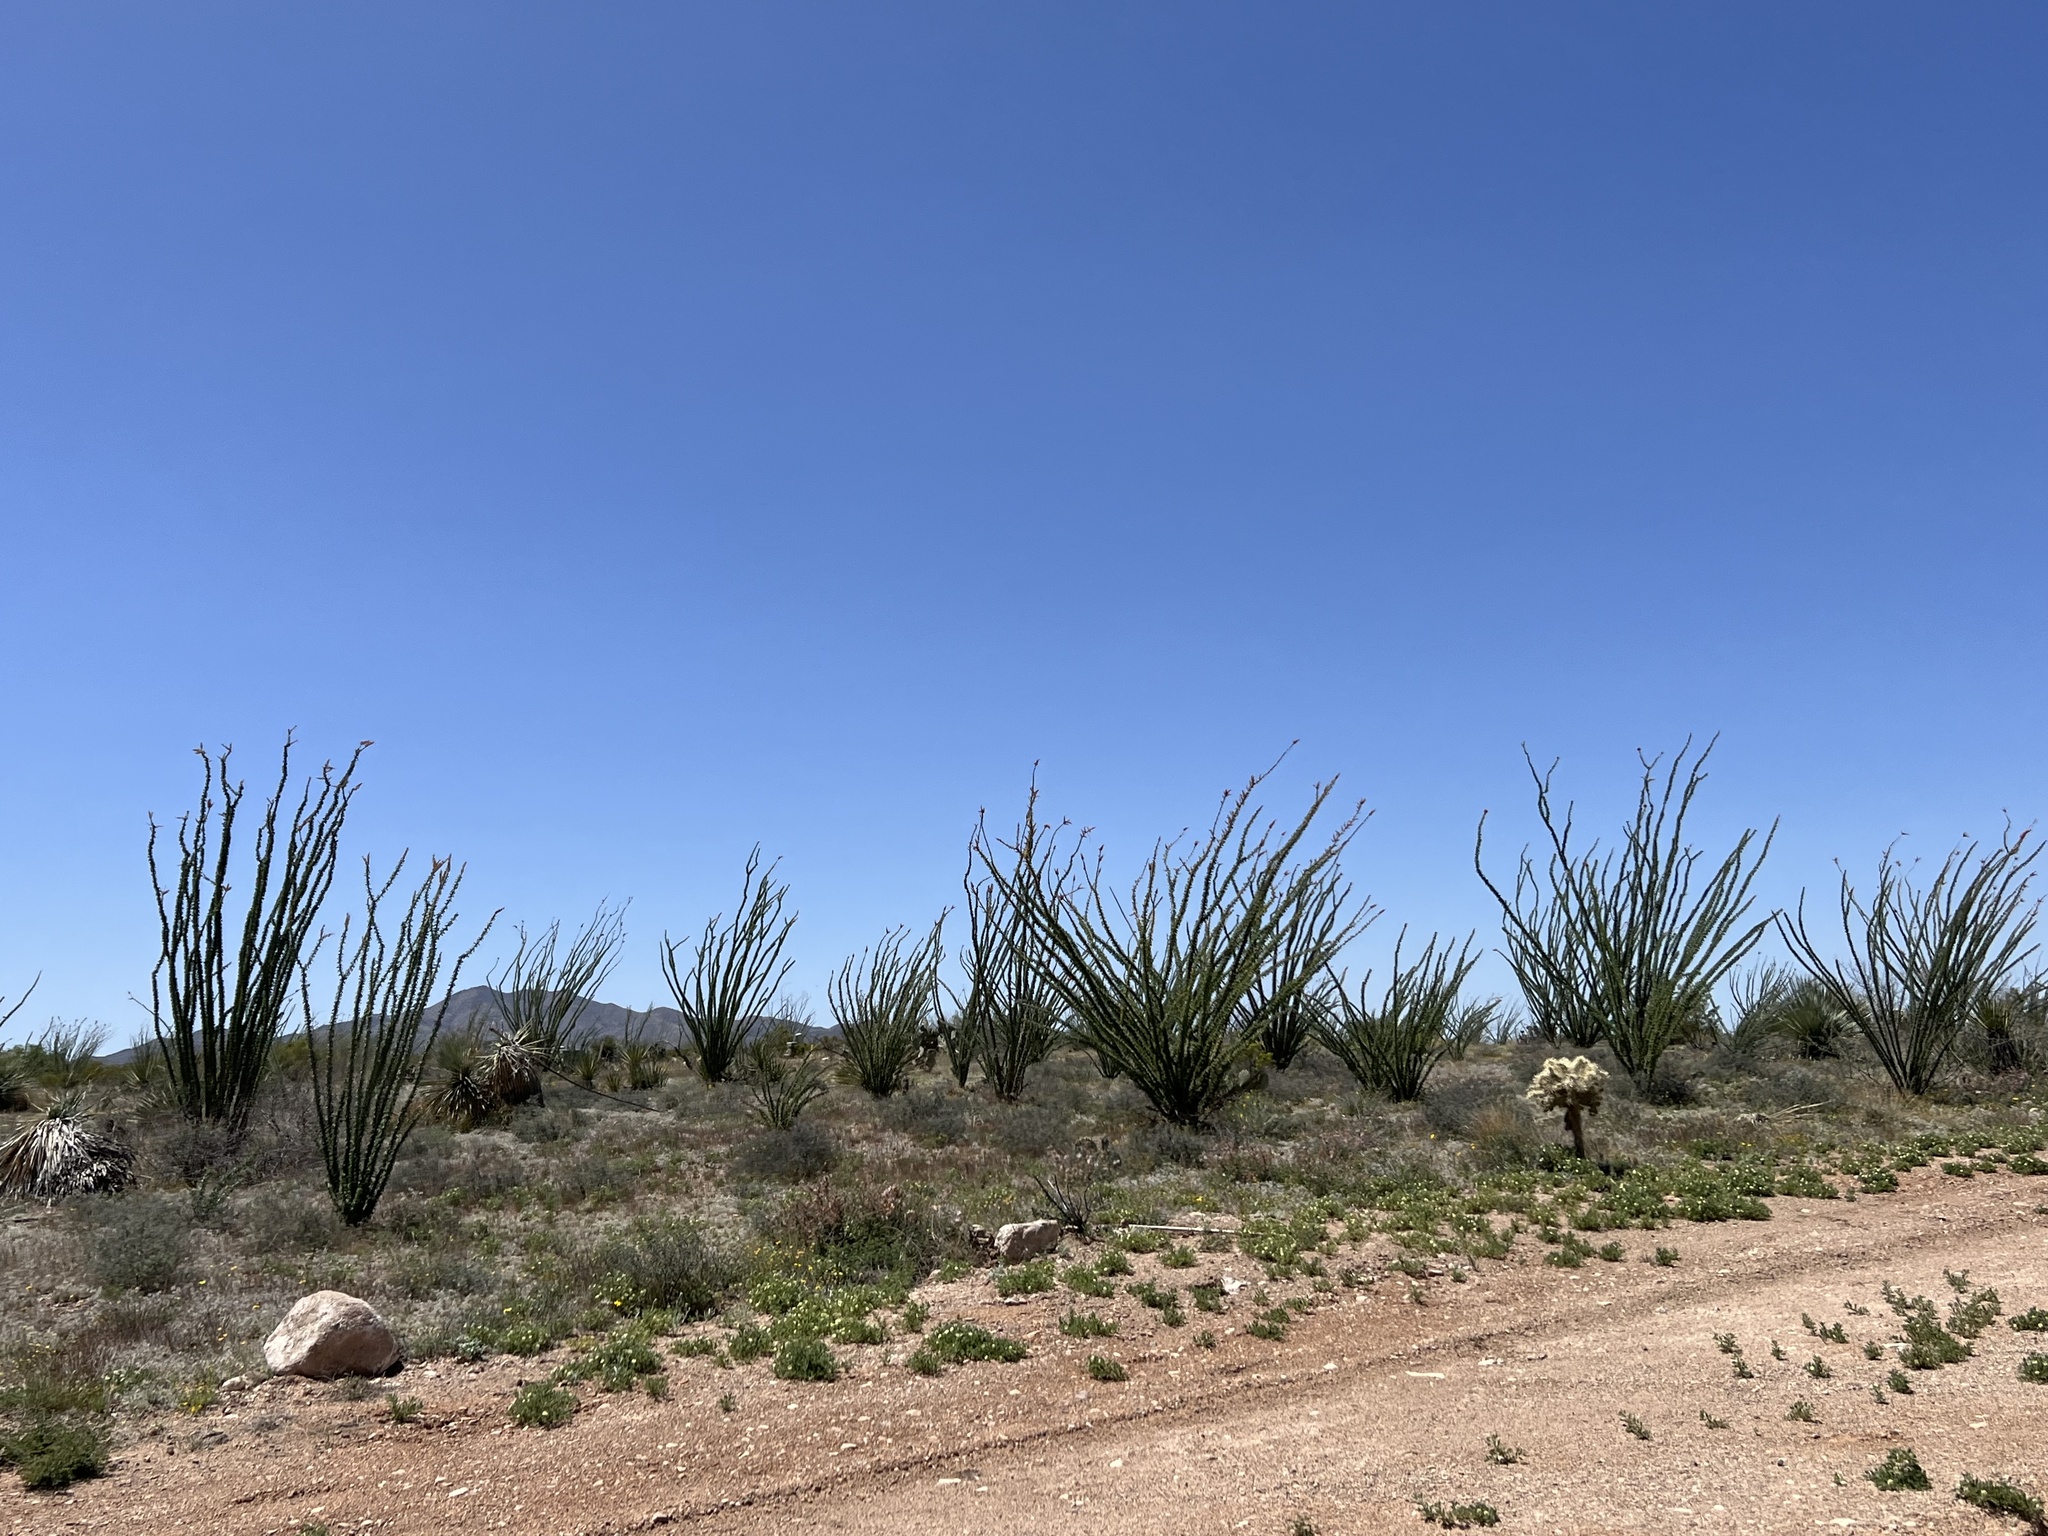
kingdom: Plantae
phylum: Tracheophyta
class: Magnoliopsida
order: Ericales
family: Fouquieriaceae
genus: Fouquieria
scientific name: Fouquieria splendens
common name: Vine-cactus
